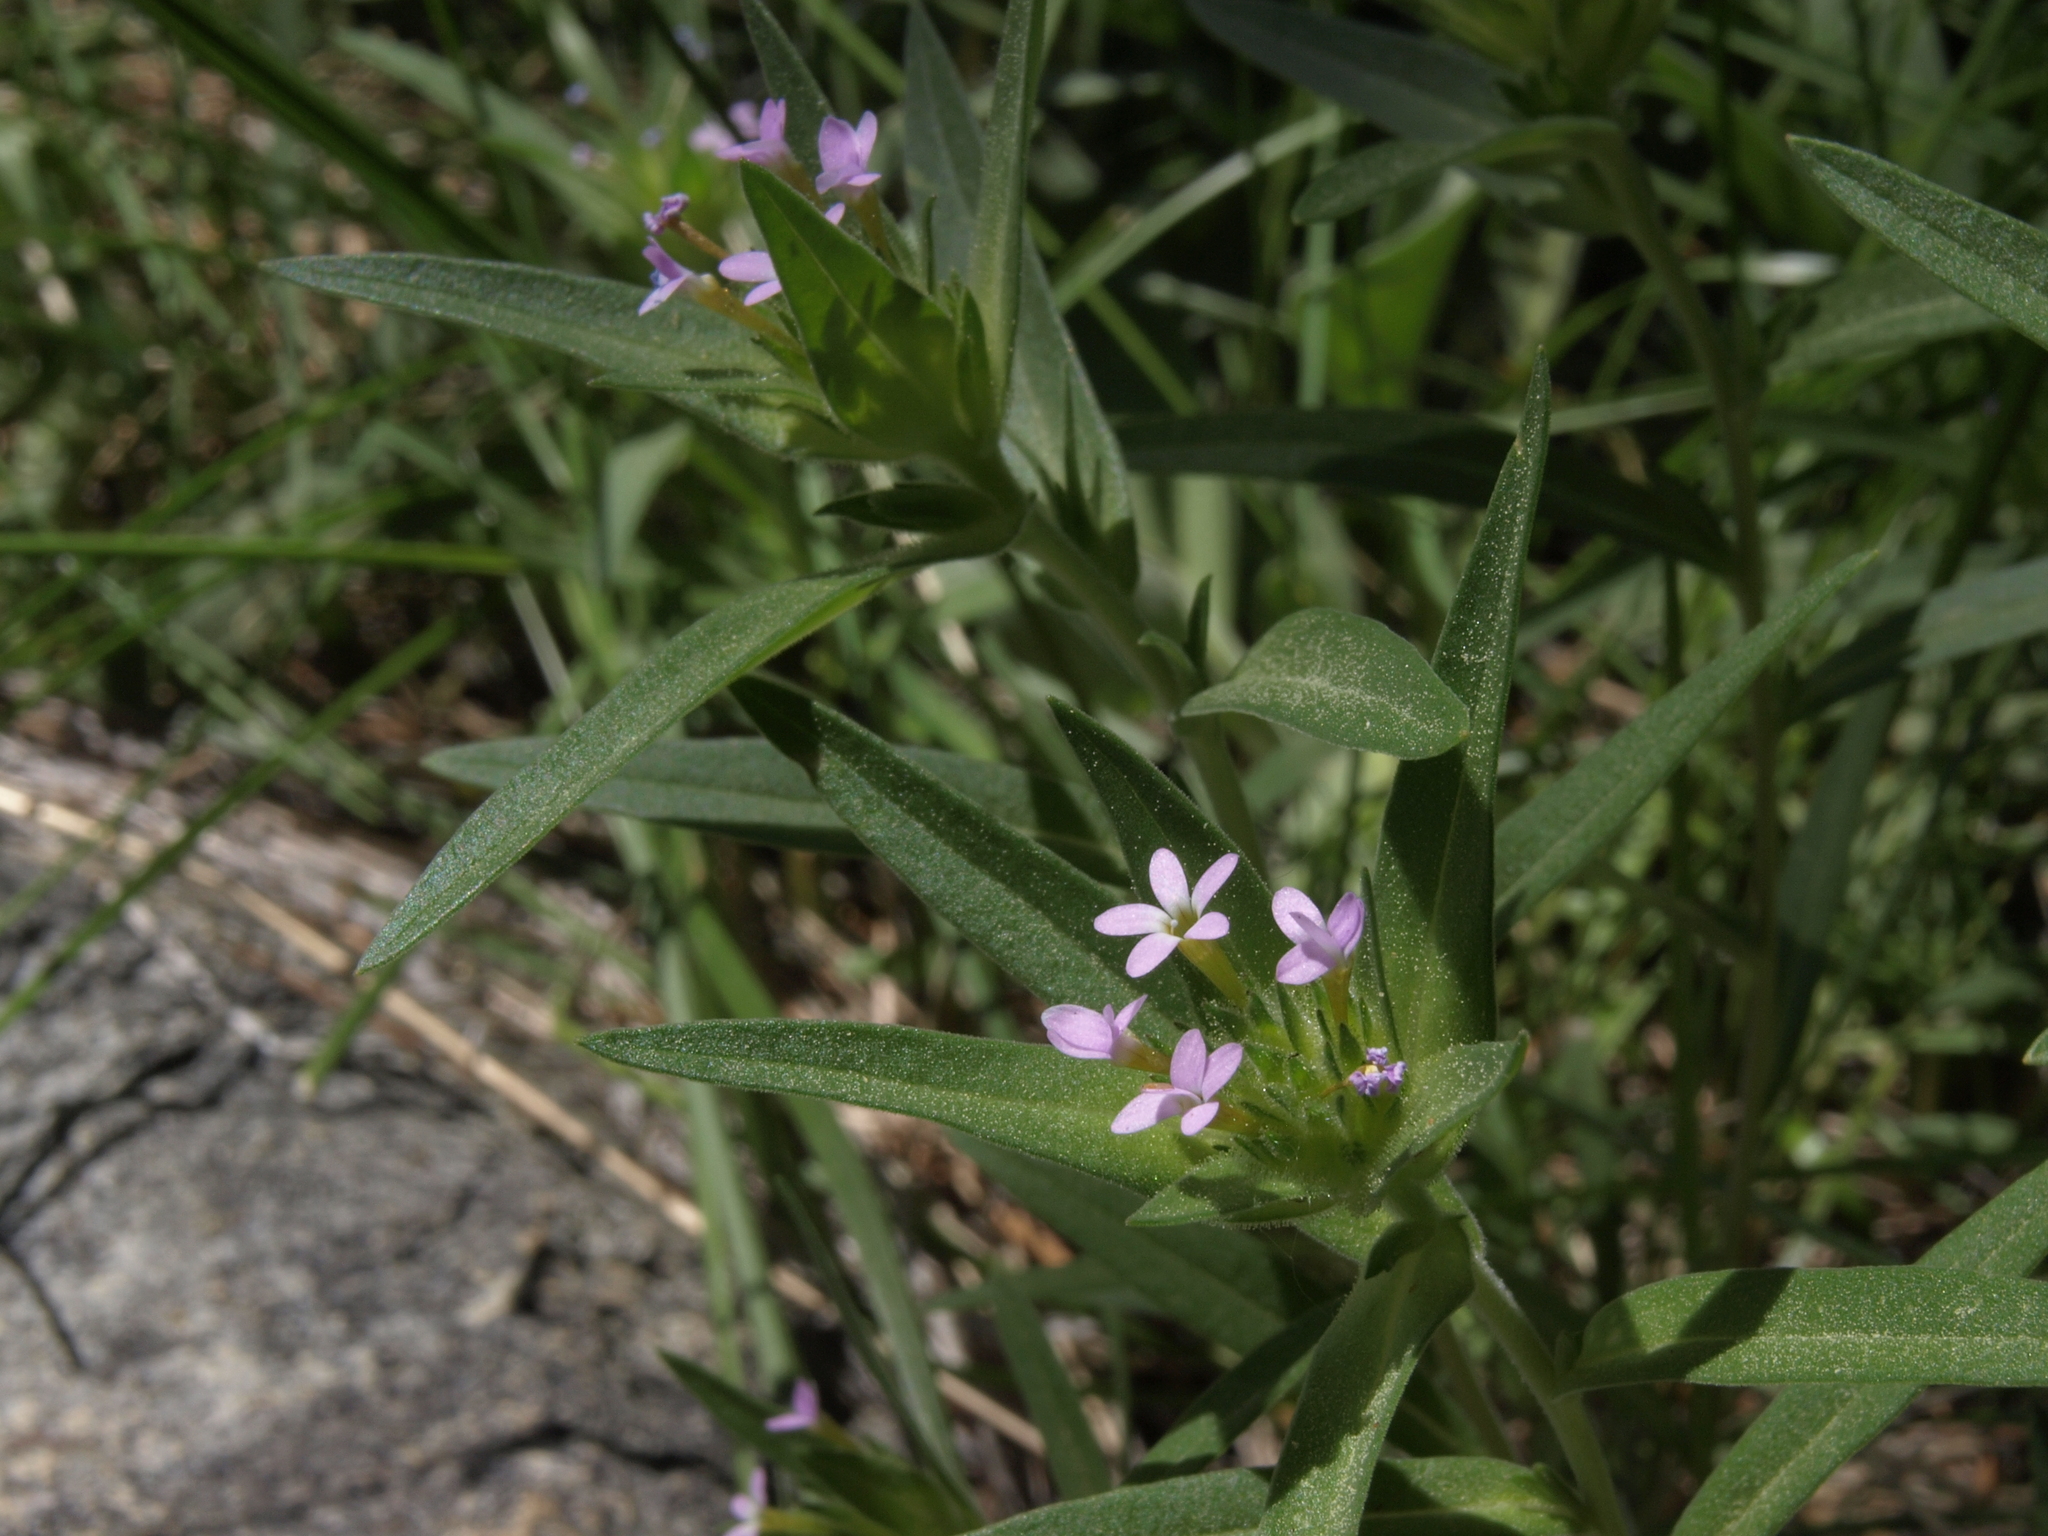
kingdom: Plantae
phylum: Tracheophyta
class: Magnoliopsida
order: Ericales
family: Polemoniaceae
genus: Collomia
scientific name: Collomia linearis
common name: Tiny trumpet
